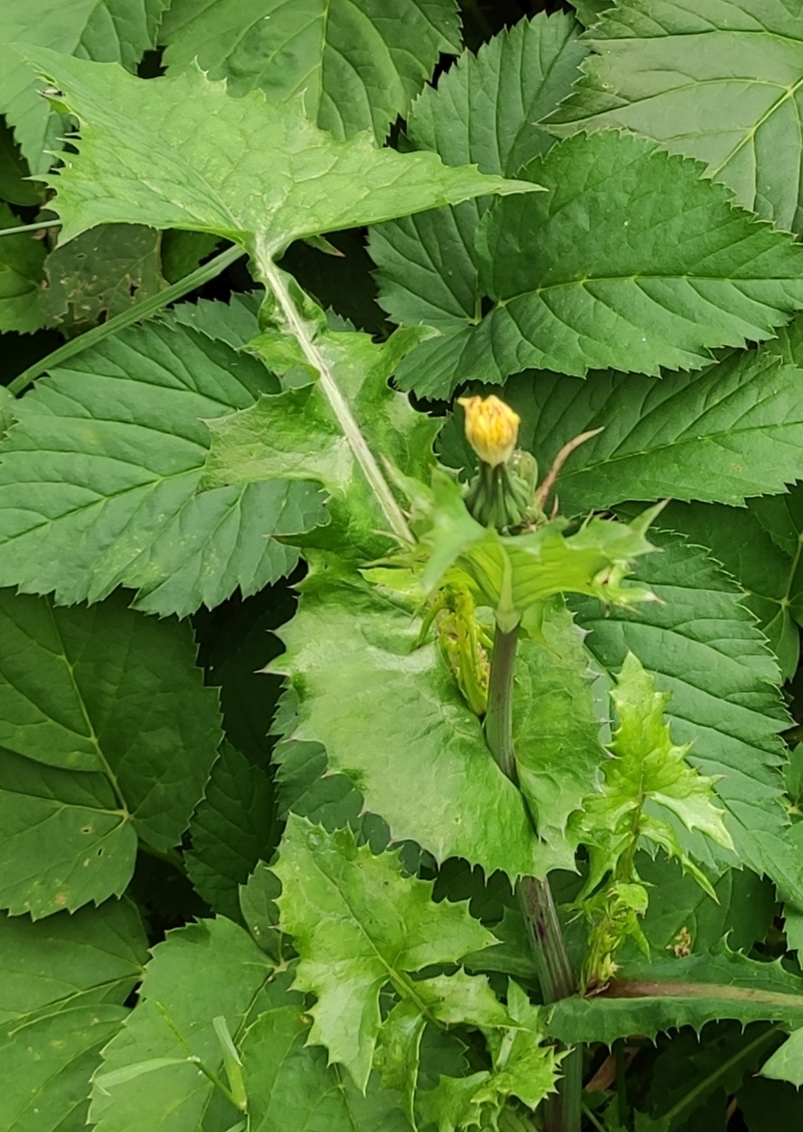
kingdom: Plantae
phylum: Tracheophyta
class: Magnoliopsida
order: Asterales
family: Asteraceae
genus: Sonchus
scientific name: Sonchus oleraceus
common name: Common sowthistle
